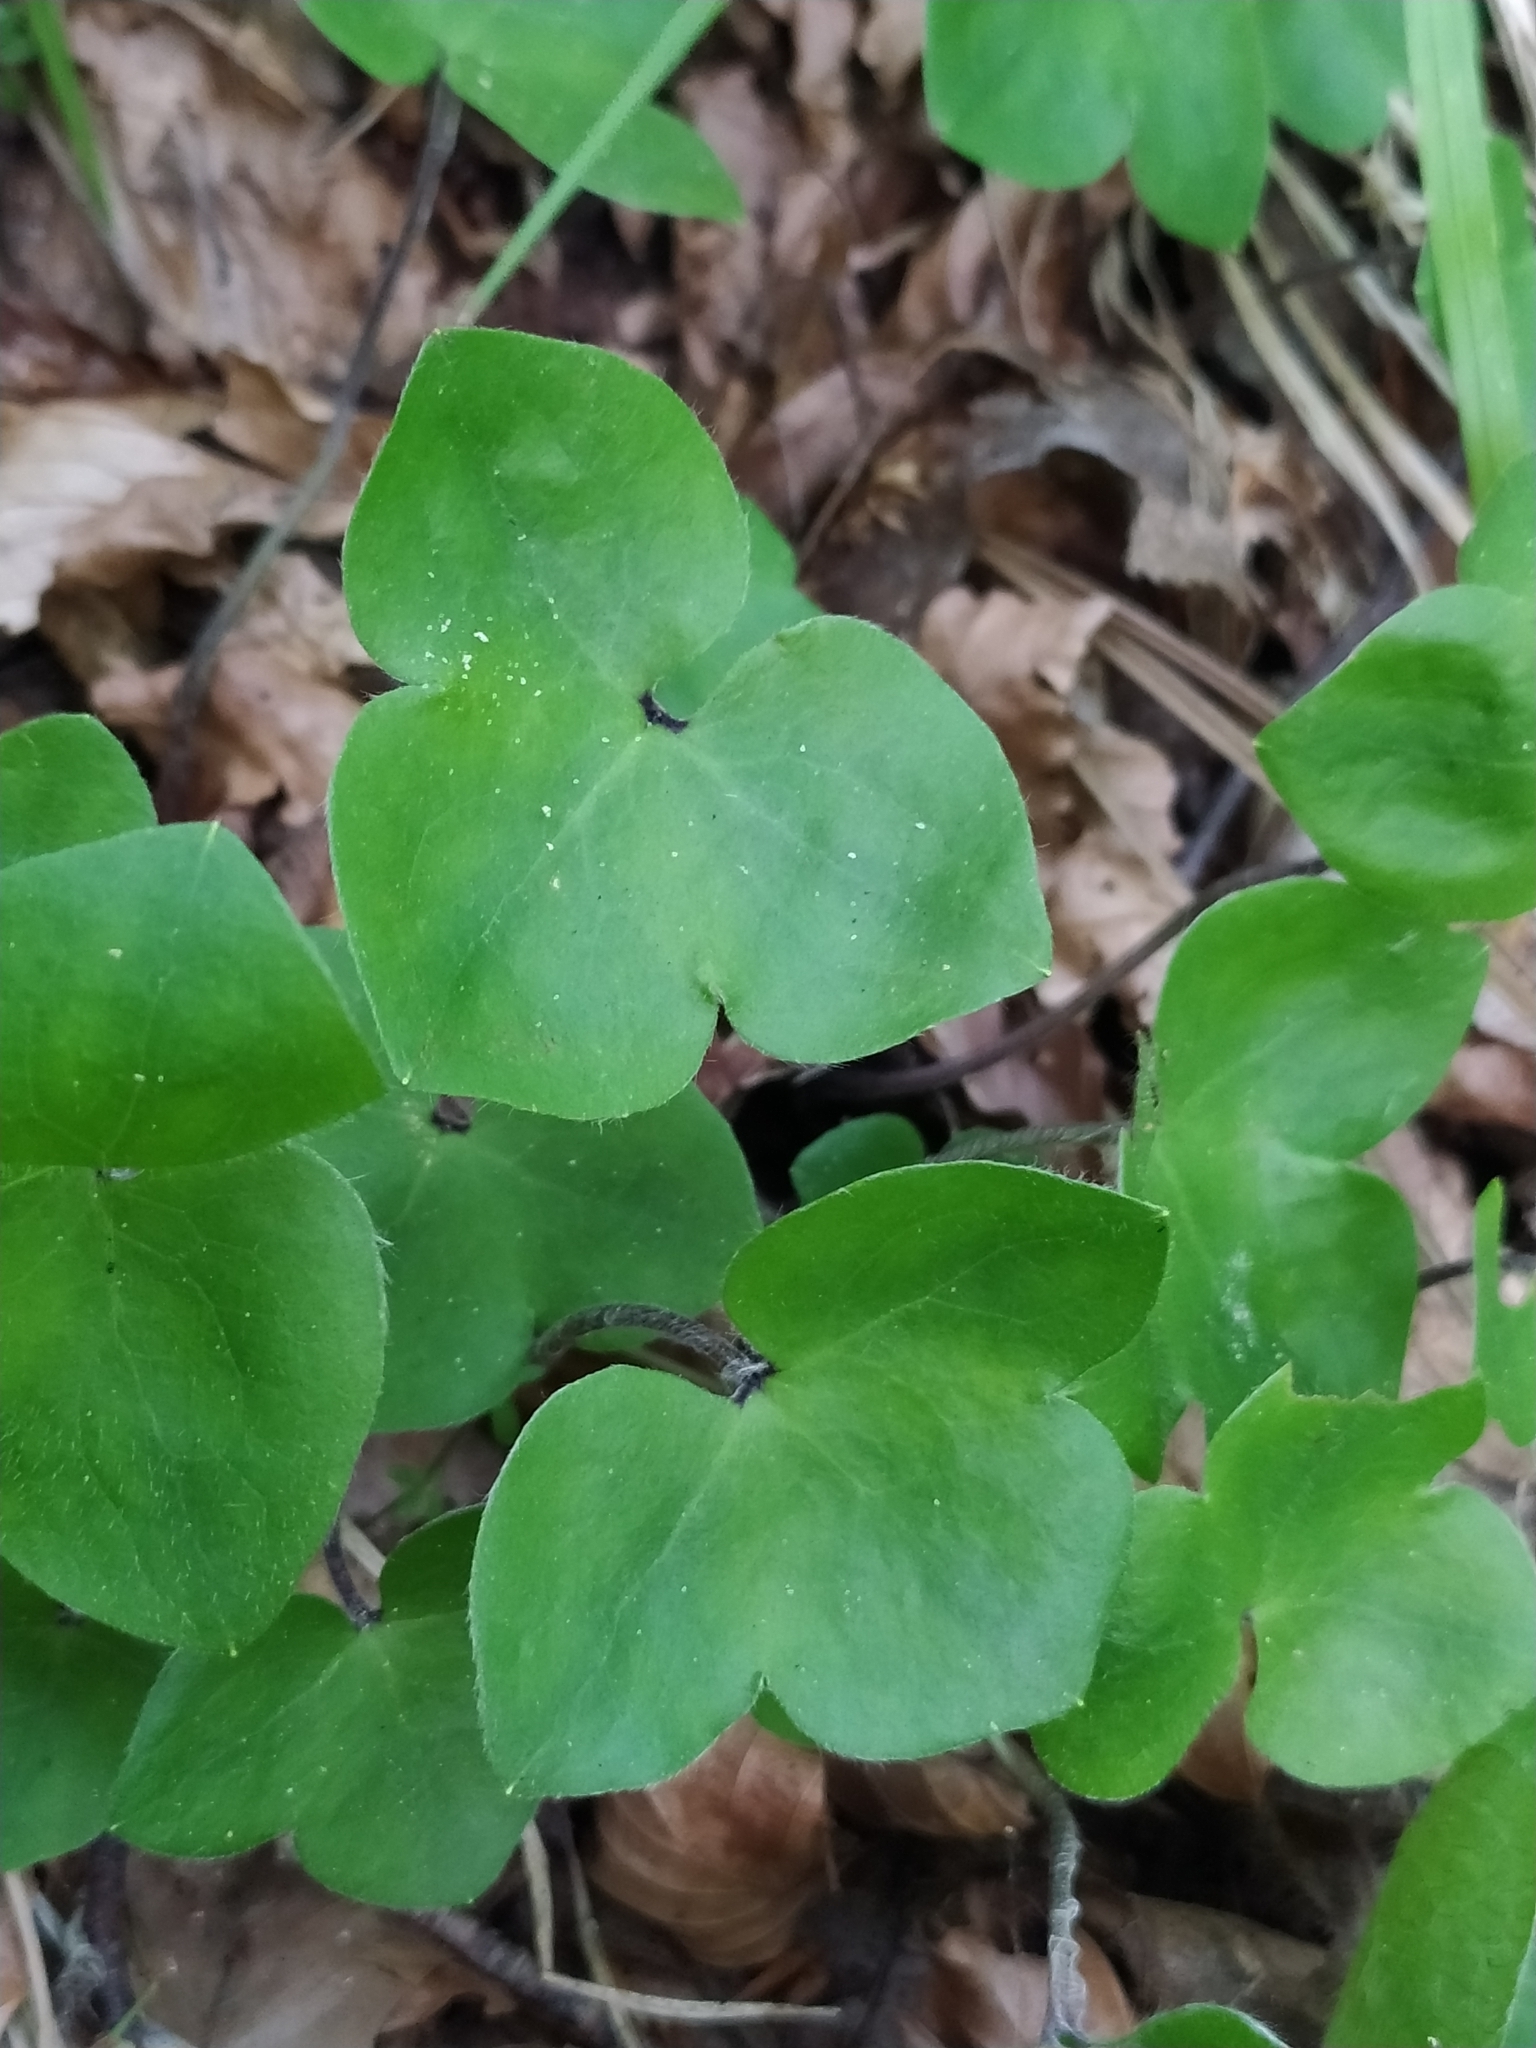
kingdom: Plantae
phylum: Tracheophyta
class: Magnoliopsida
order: Ranunculales
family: Ranunculaceae
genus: Hepatica
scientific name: Hepatica nobilis
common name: Liverleaf
